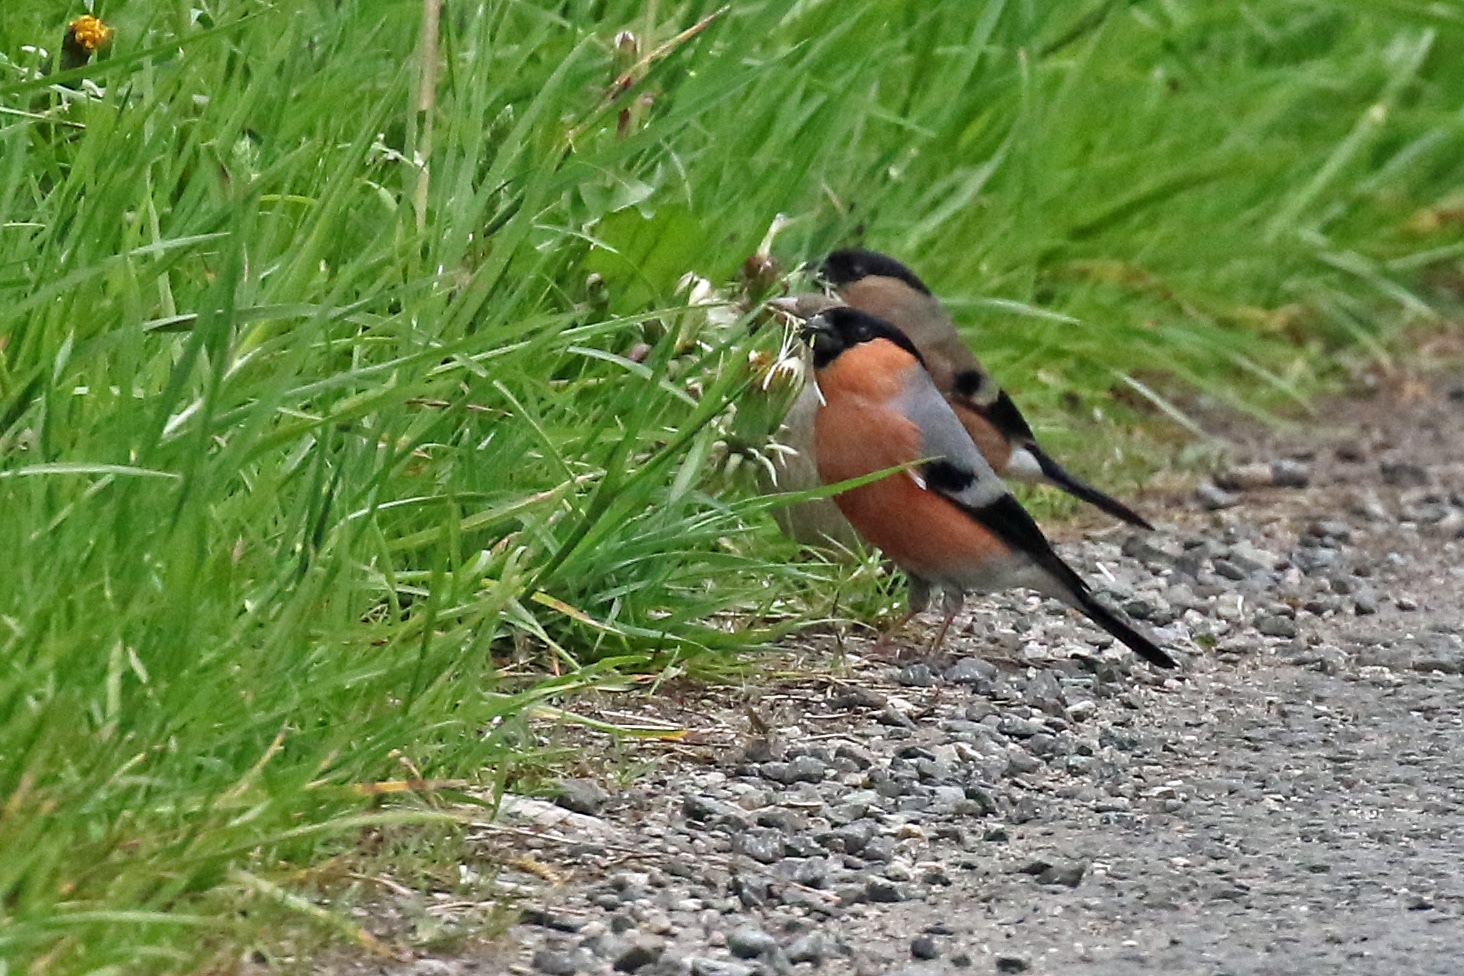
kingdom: Animalia
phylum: Chordata
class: Aves
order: Passeriformes
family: Fringillidae
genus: Pyrrhula
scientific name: Pyrrhula pyrrhula
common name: Eurasian bullfinch
